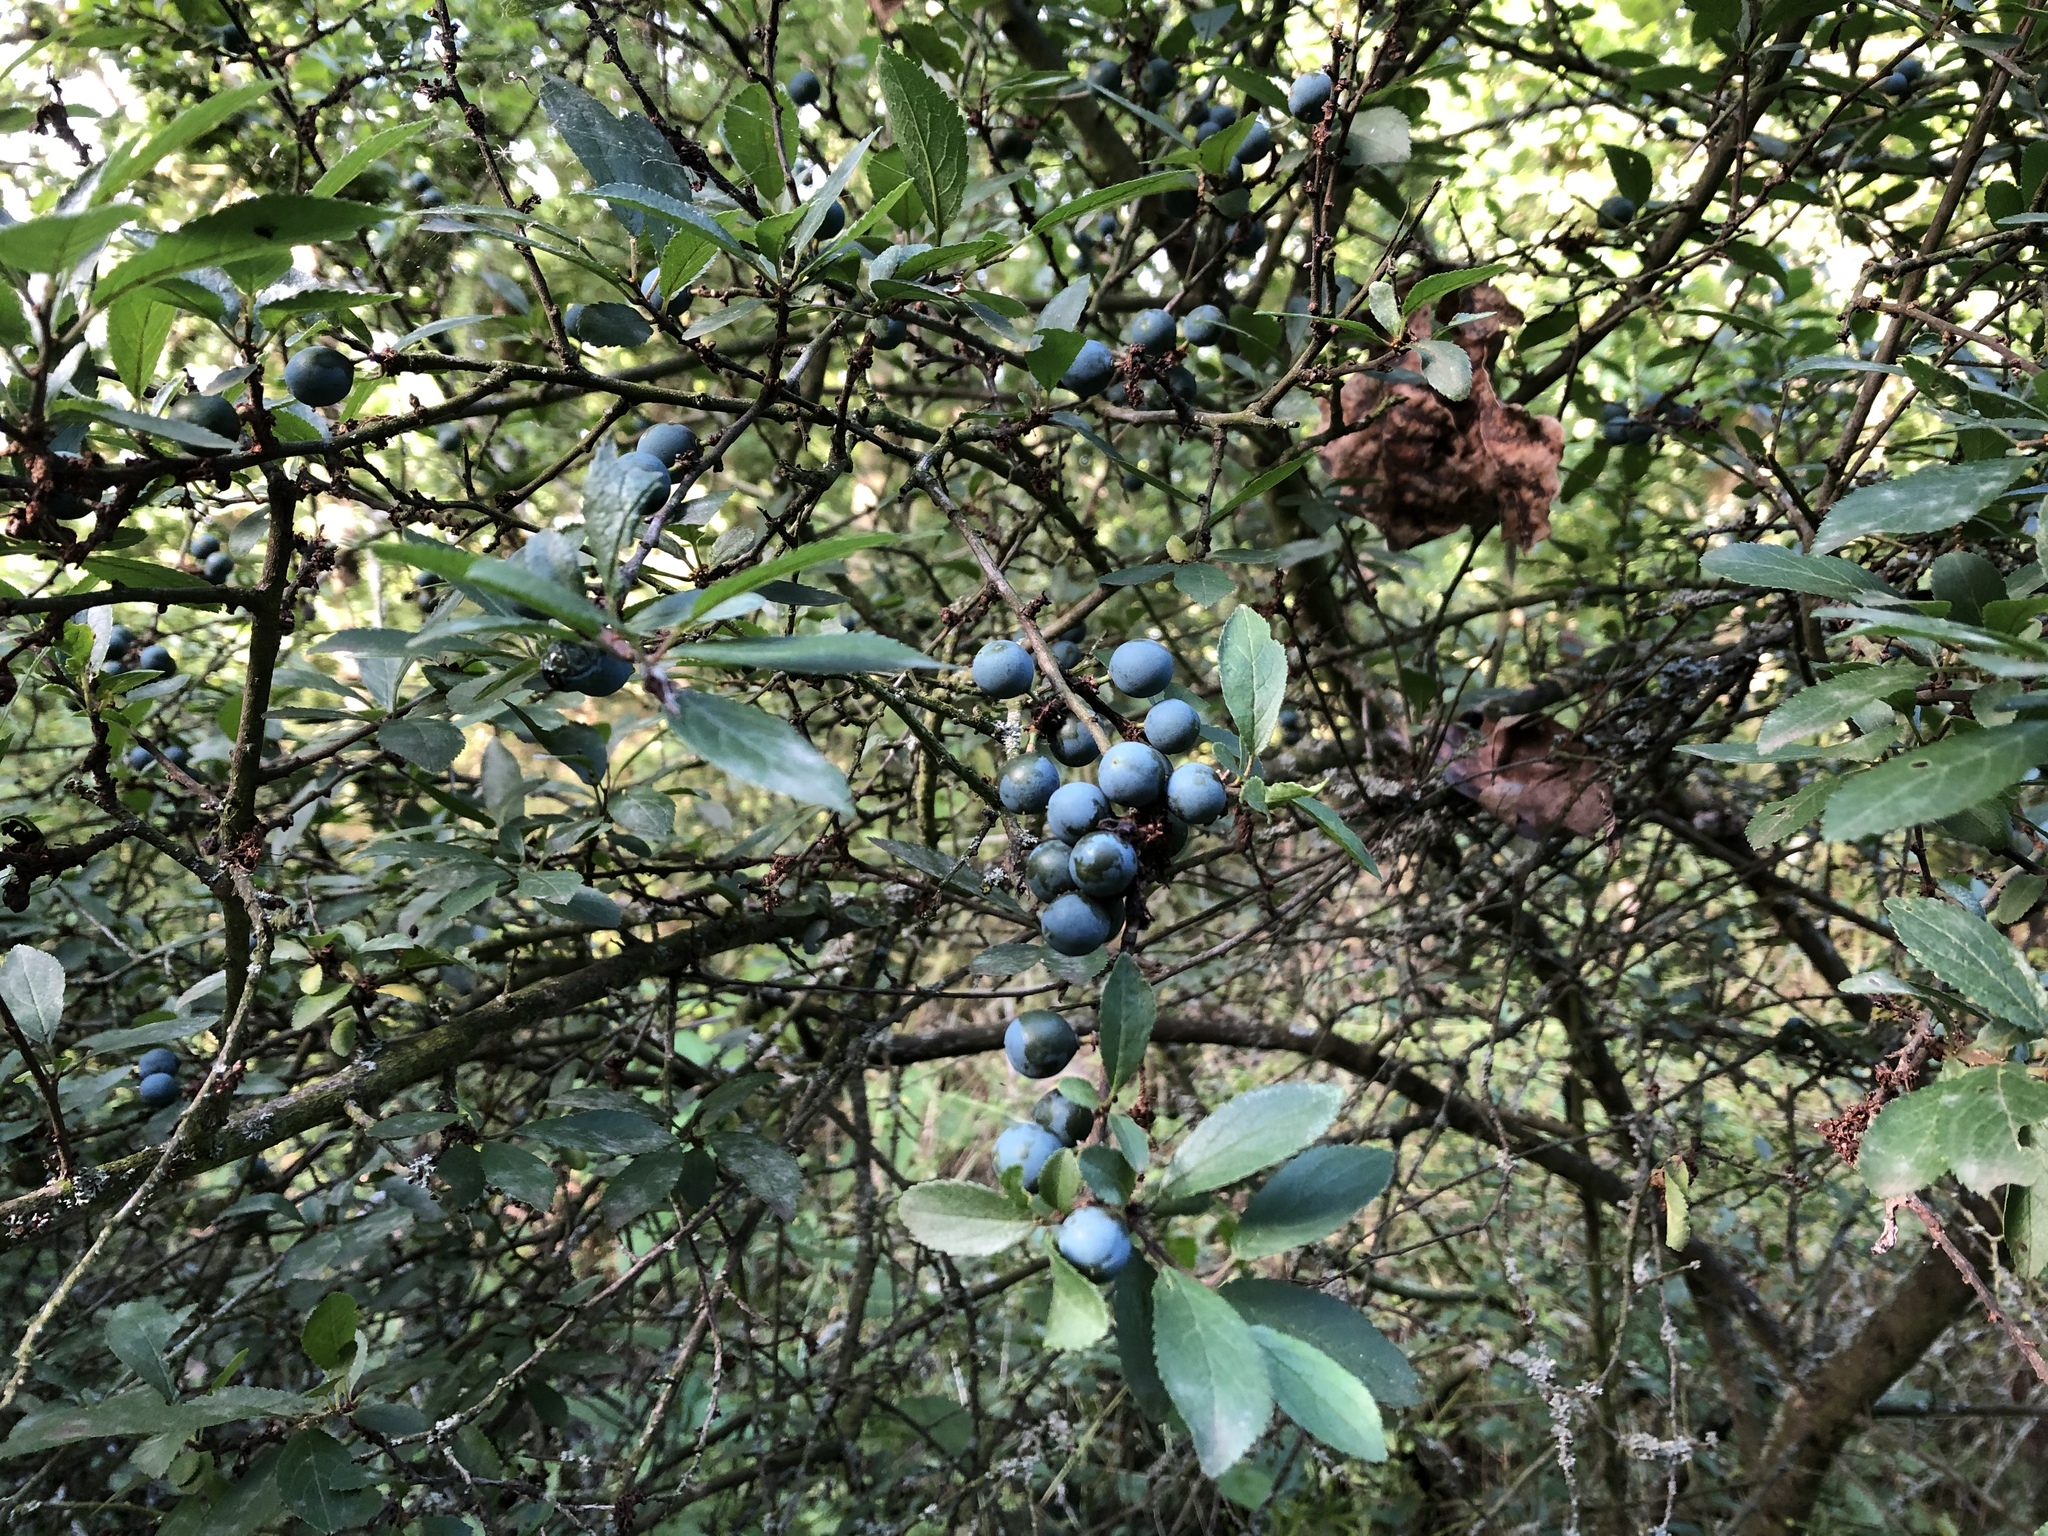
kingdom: Plantae
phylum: Tracheophyta
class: Magnoliopsida
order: Rosales
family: Rosaceae
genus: Prunus
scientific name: Prunus spinosa
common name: Blackthorn
